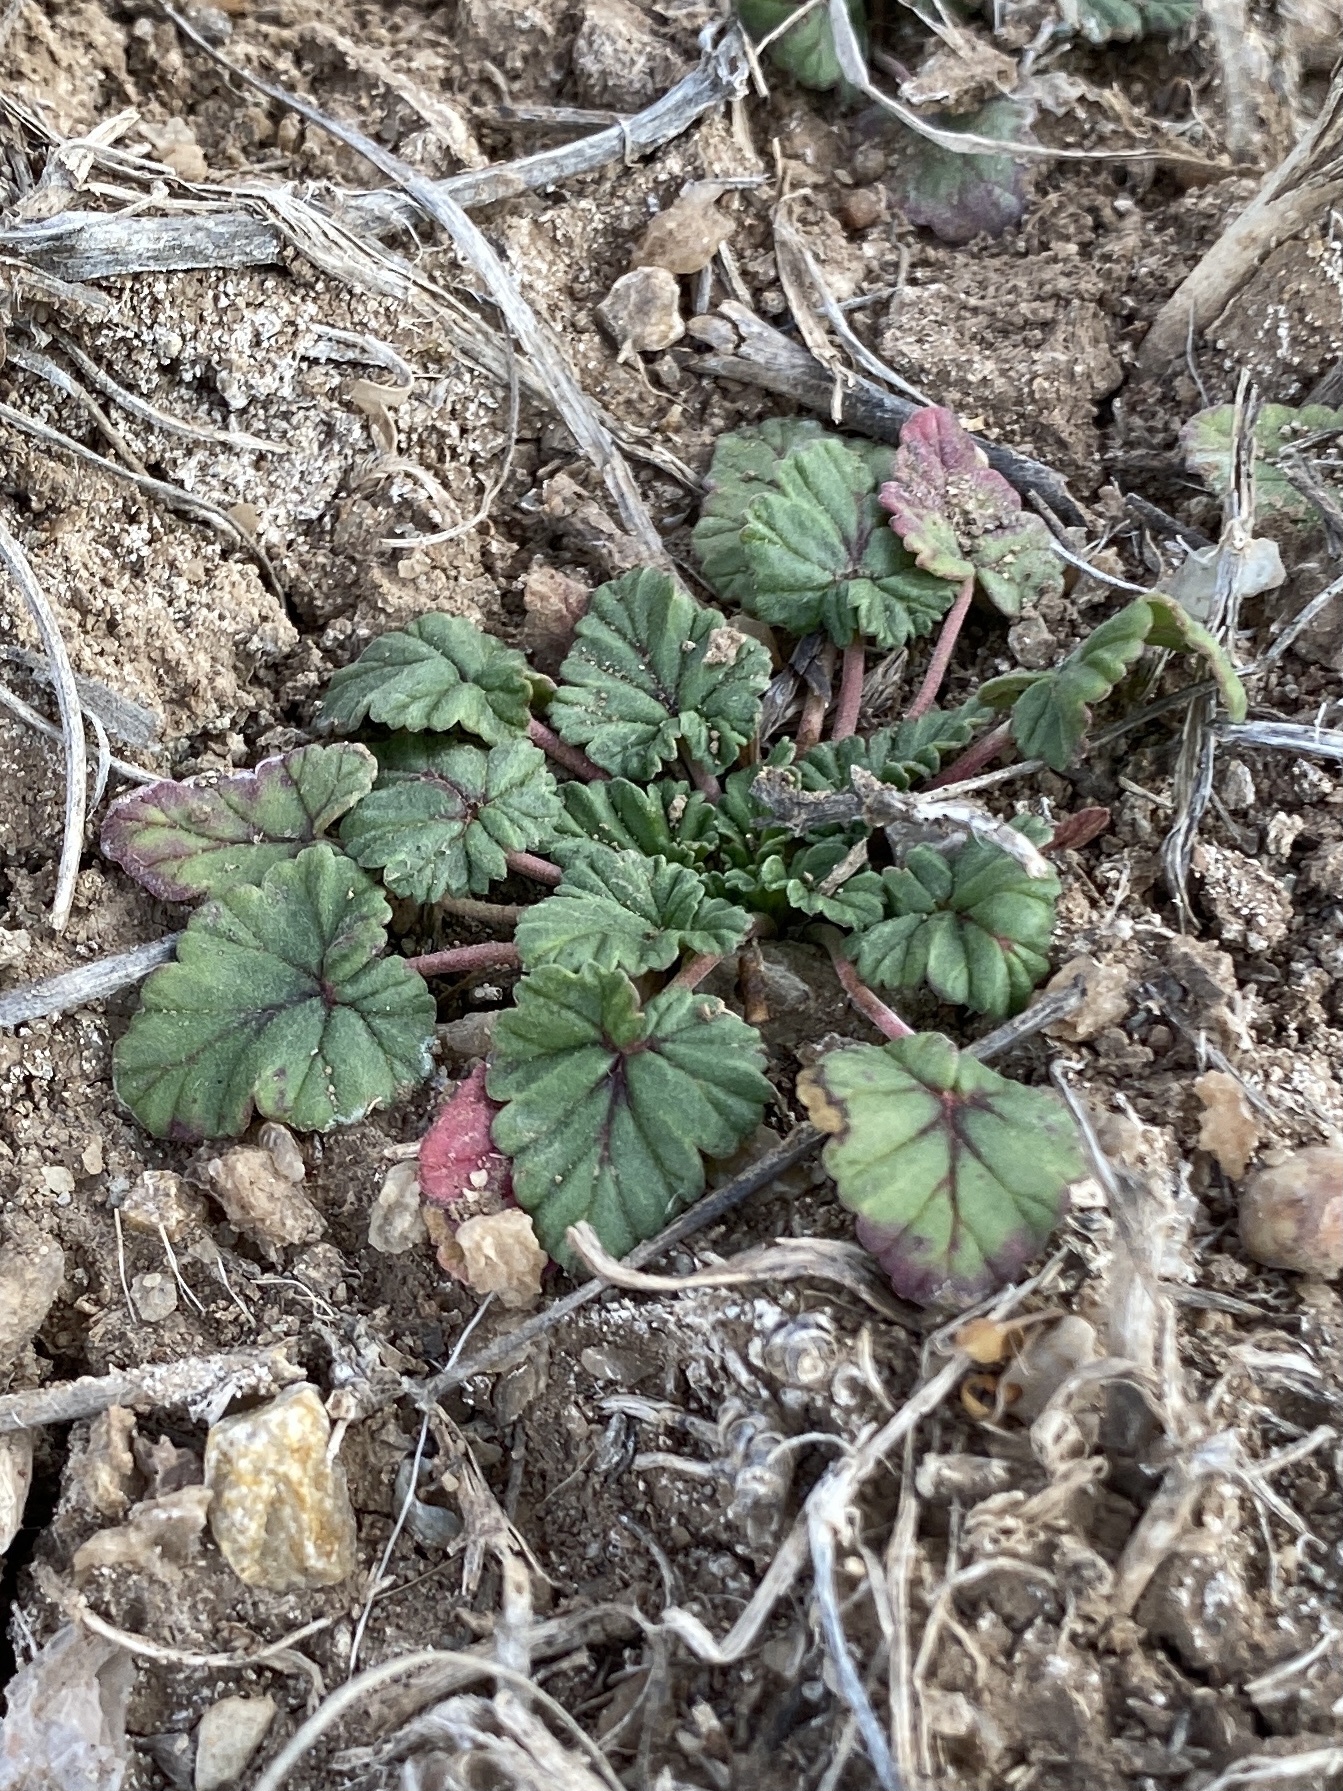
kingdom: Plantae
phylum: Tracheophyta
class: Magnoliopsida
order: Geraniales
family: Geraniaceae
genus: Erodium
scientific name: Erodium texanum
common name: Texas stork's-bill
